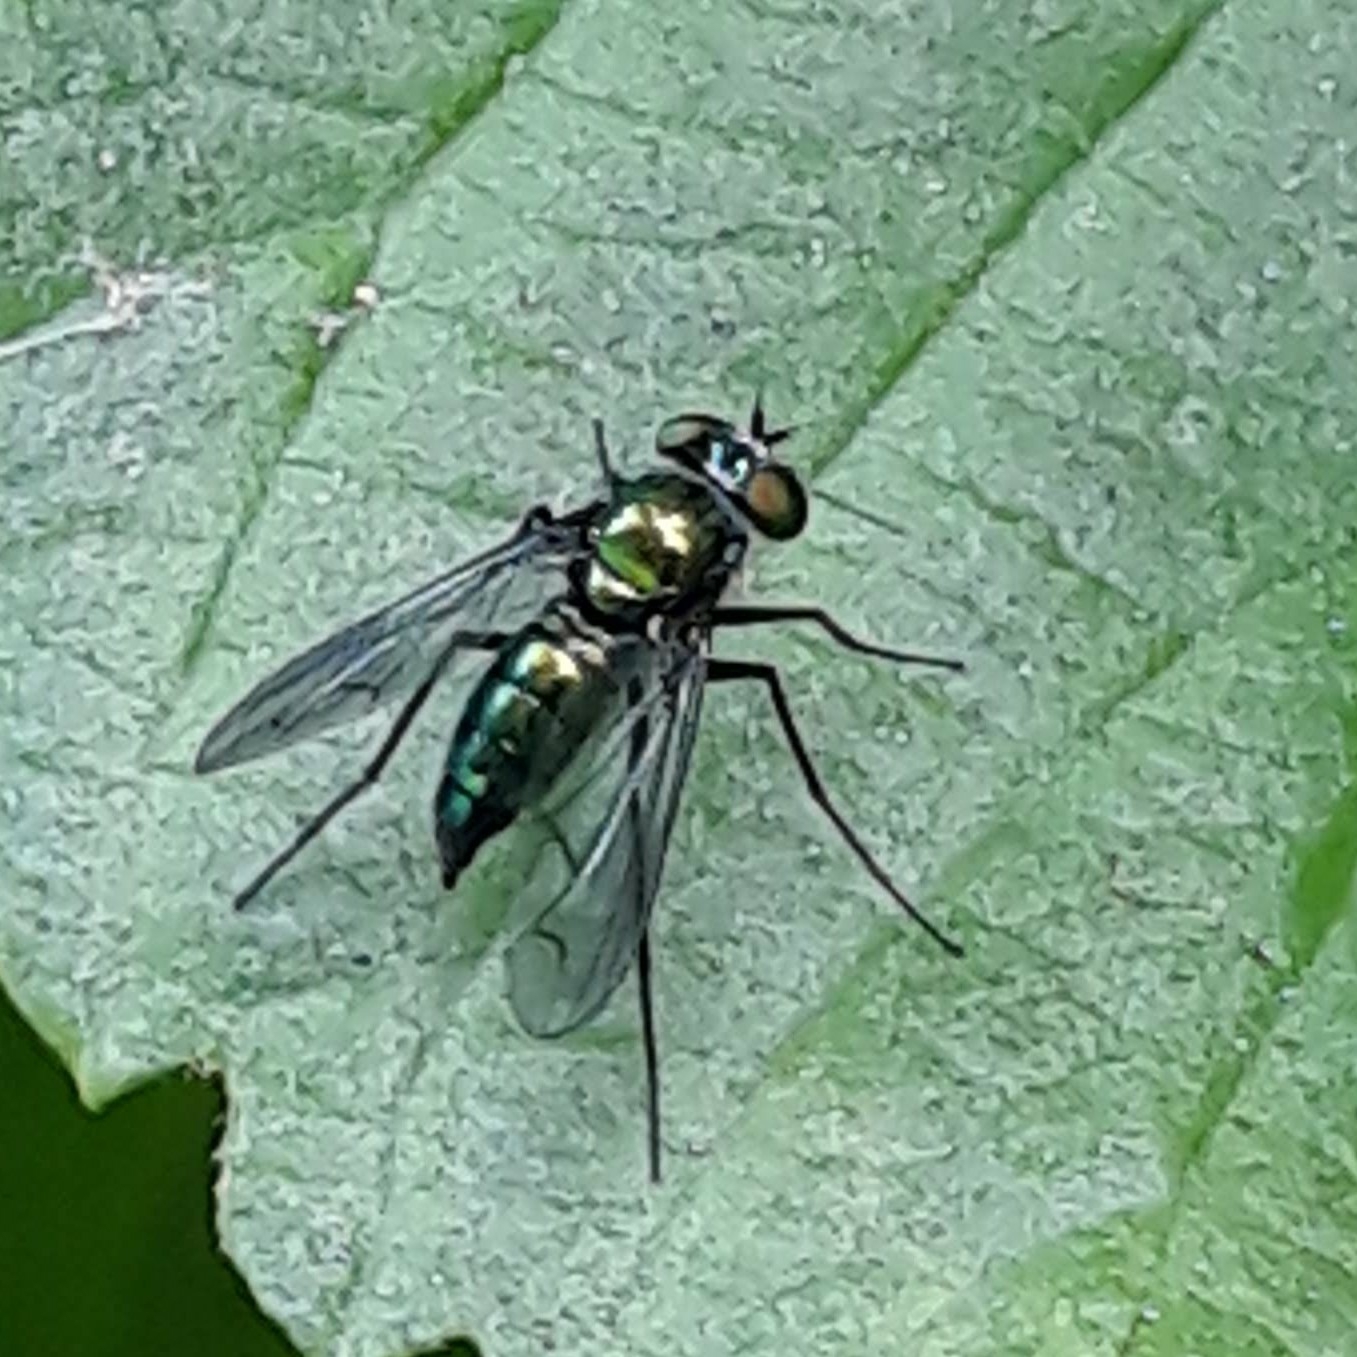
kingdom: Animalia
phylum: Arthropoda
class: Insecta
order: Diptera
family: Dolichopodidae
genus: Condylostylus
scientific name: Condylostylus patibulatus
